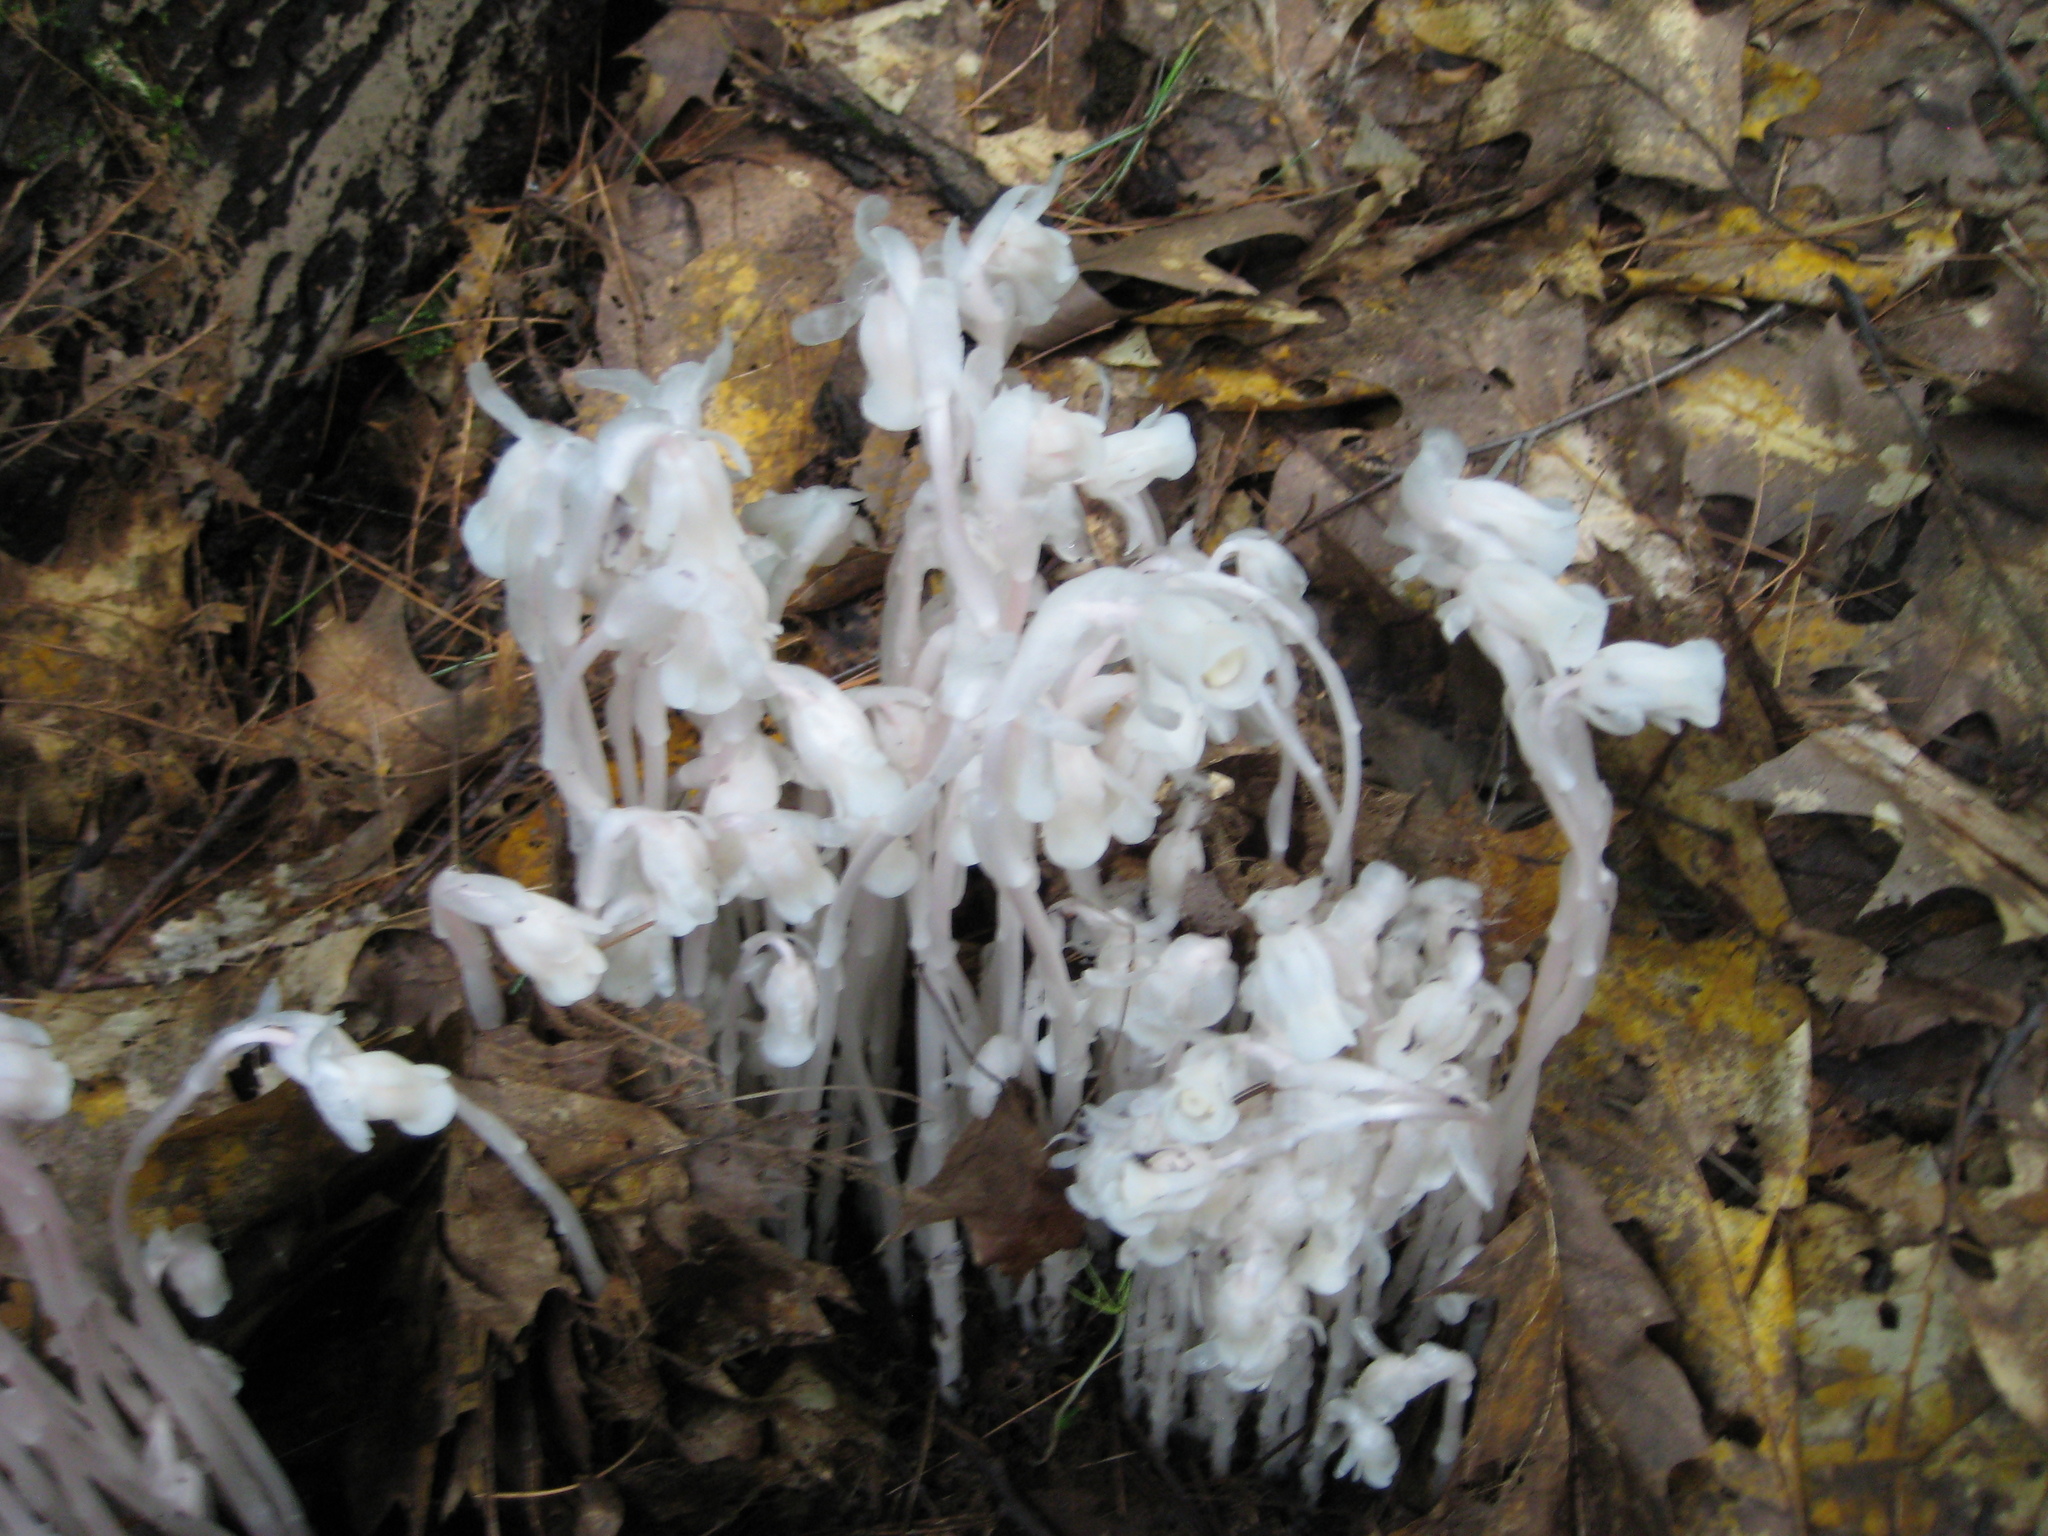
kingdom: Plantae
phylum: Tracheophyta
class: Magnoliopsida
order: Ericales
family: Ericaceae
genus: Monotropa
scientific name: Monotropa uniflora
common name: Convulsion root
